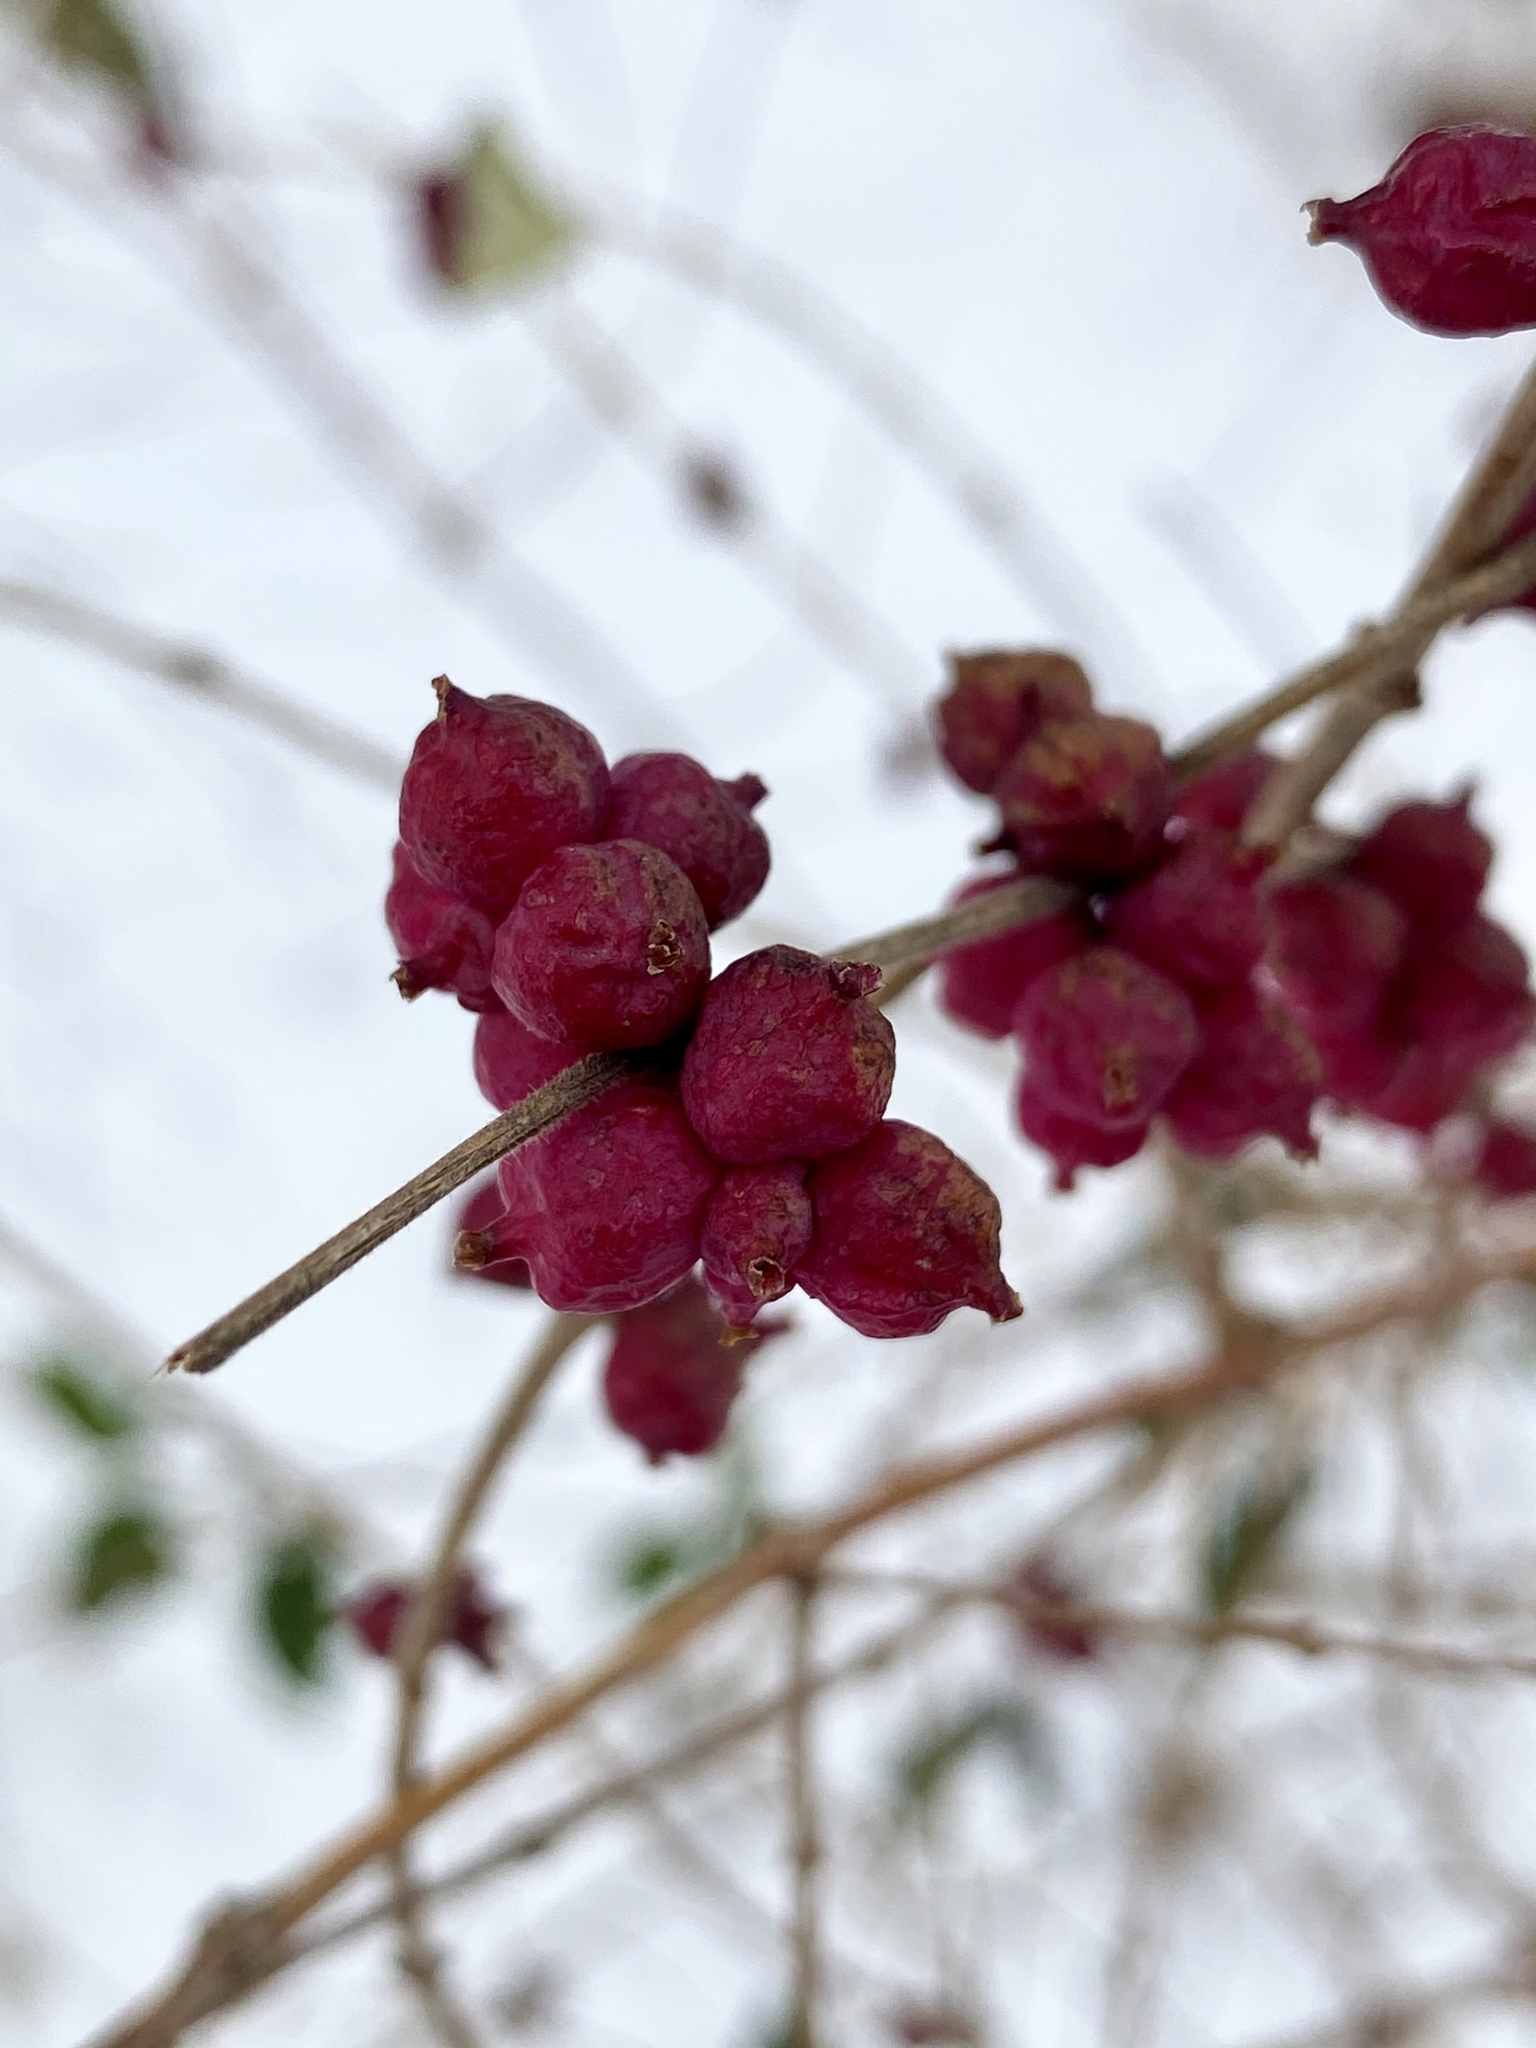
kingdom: Plantae
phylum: Tracheophyta
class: Magnoliopsida
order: Dipsacales
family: Caprifoliaceae
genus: Symphoricarpos
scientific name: Symphoricarpos orbiculatus
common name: Coralberry
